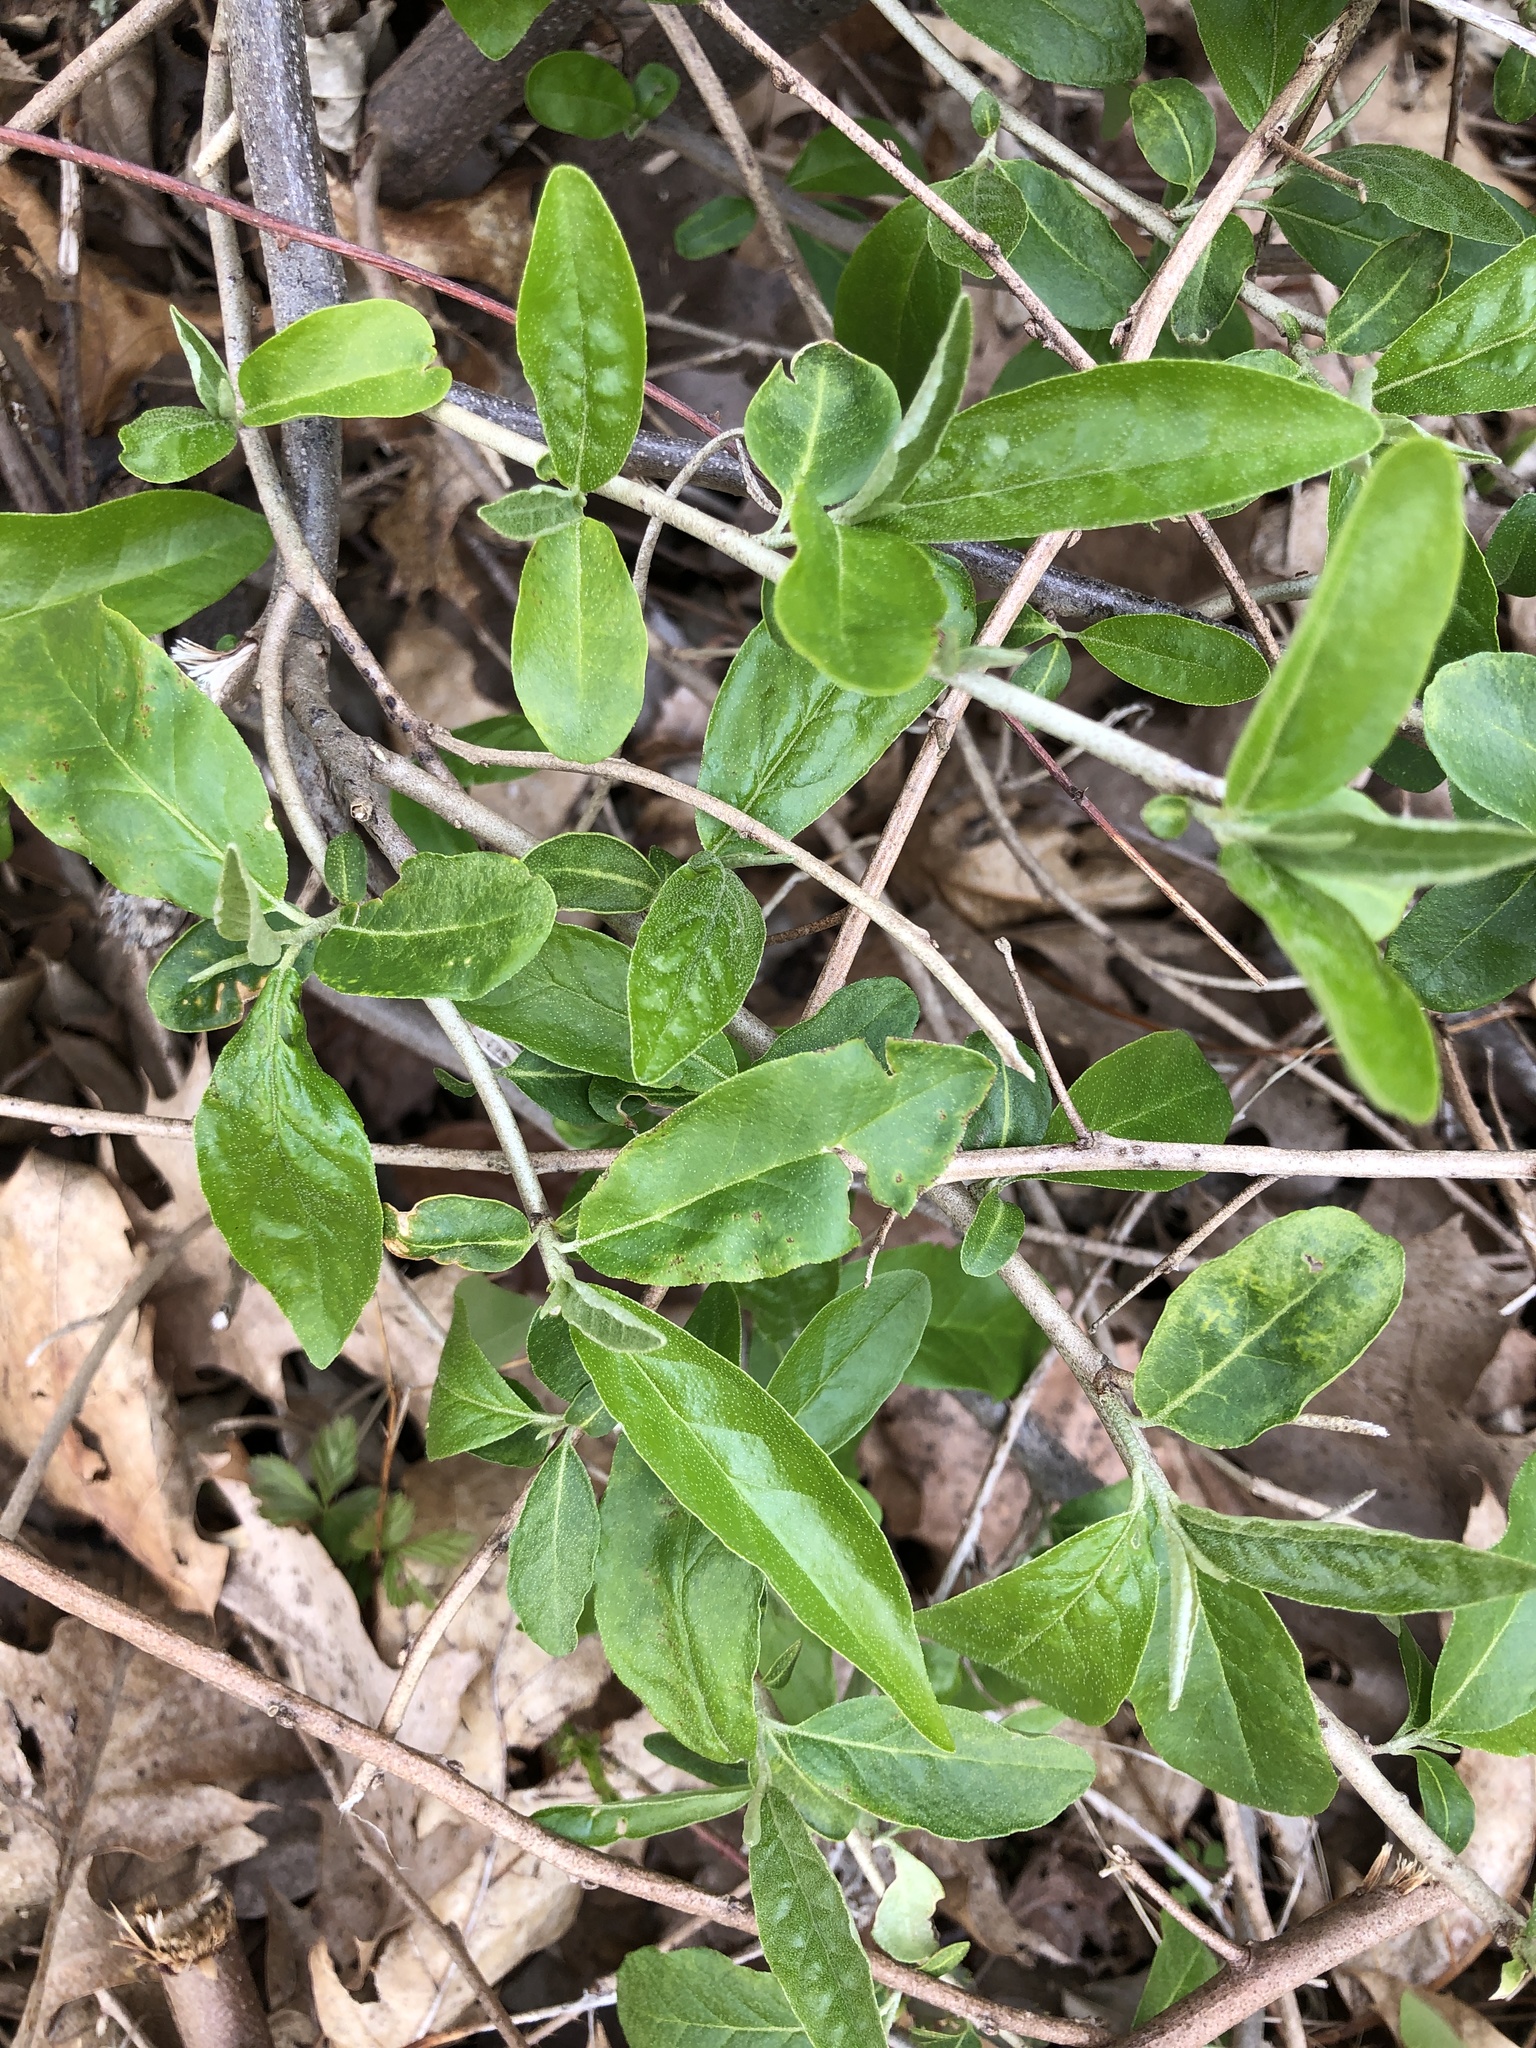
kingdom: Plantae
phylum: Tracheophyta
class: Magnoliopsida
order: Rosales
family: Elaeagnaceae
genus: Elaeagnus
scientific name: Elaeagnus umbellata
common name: Autumn olive
